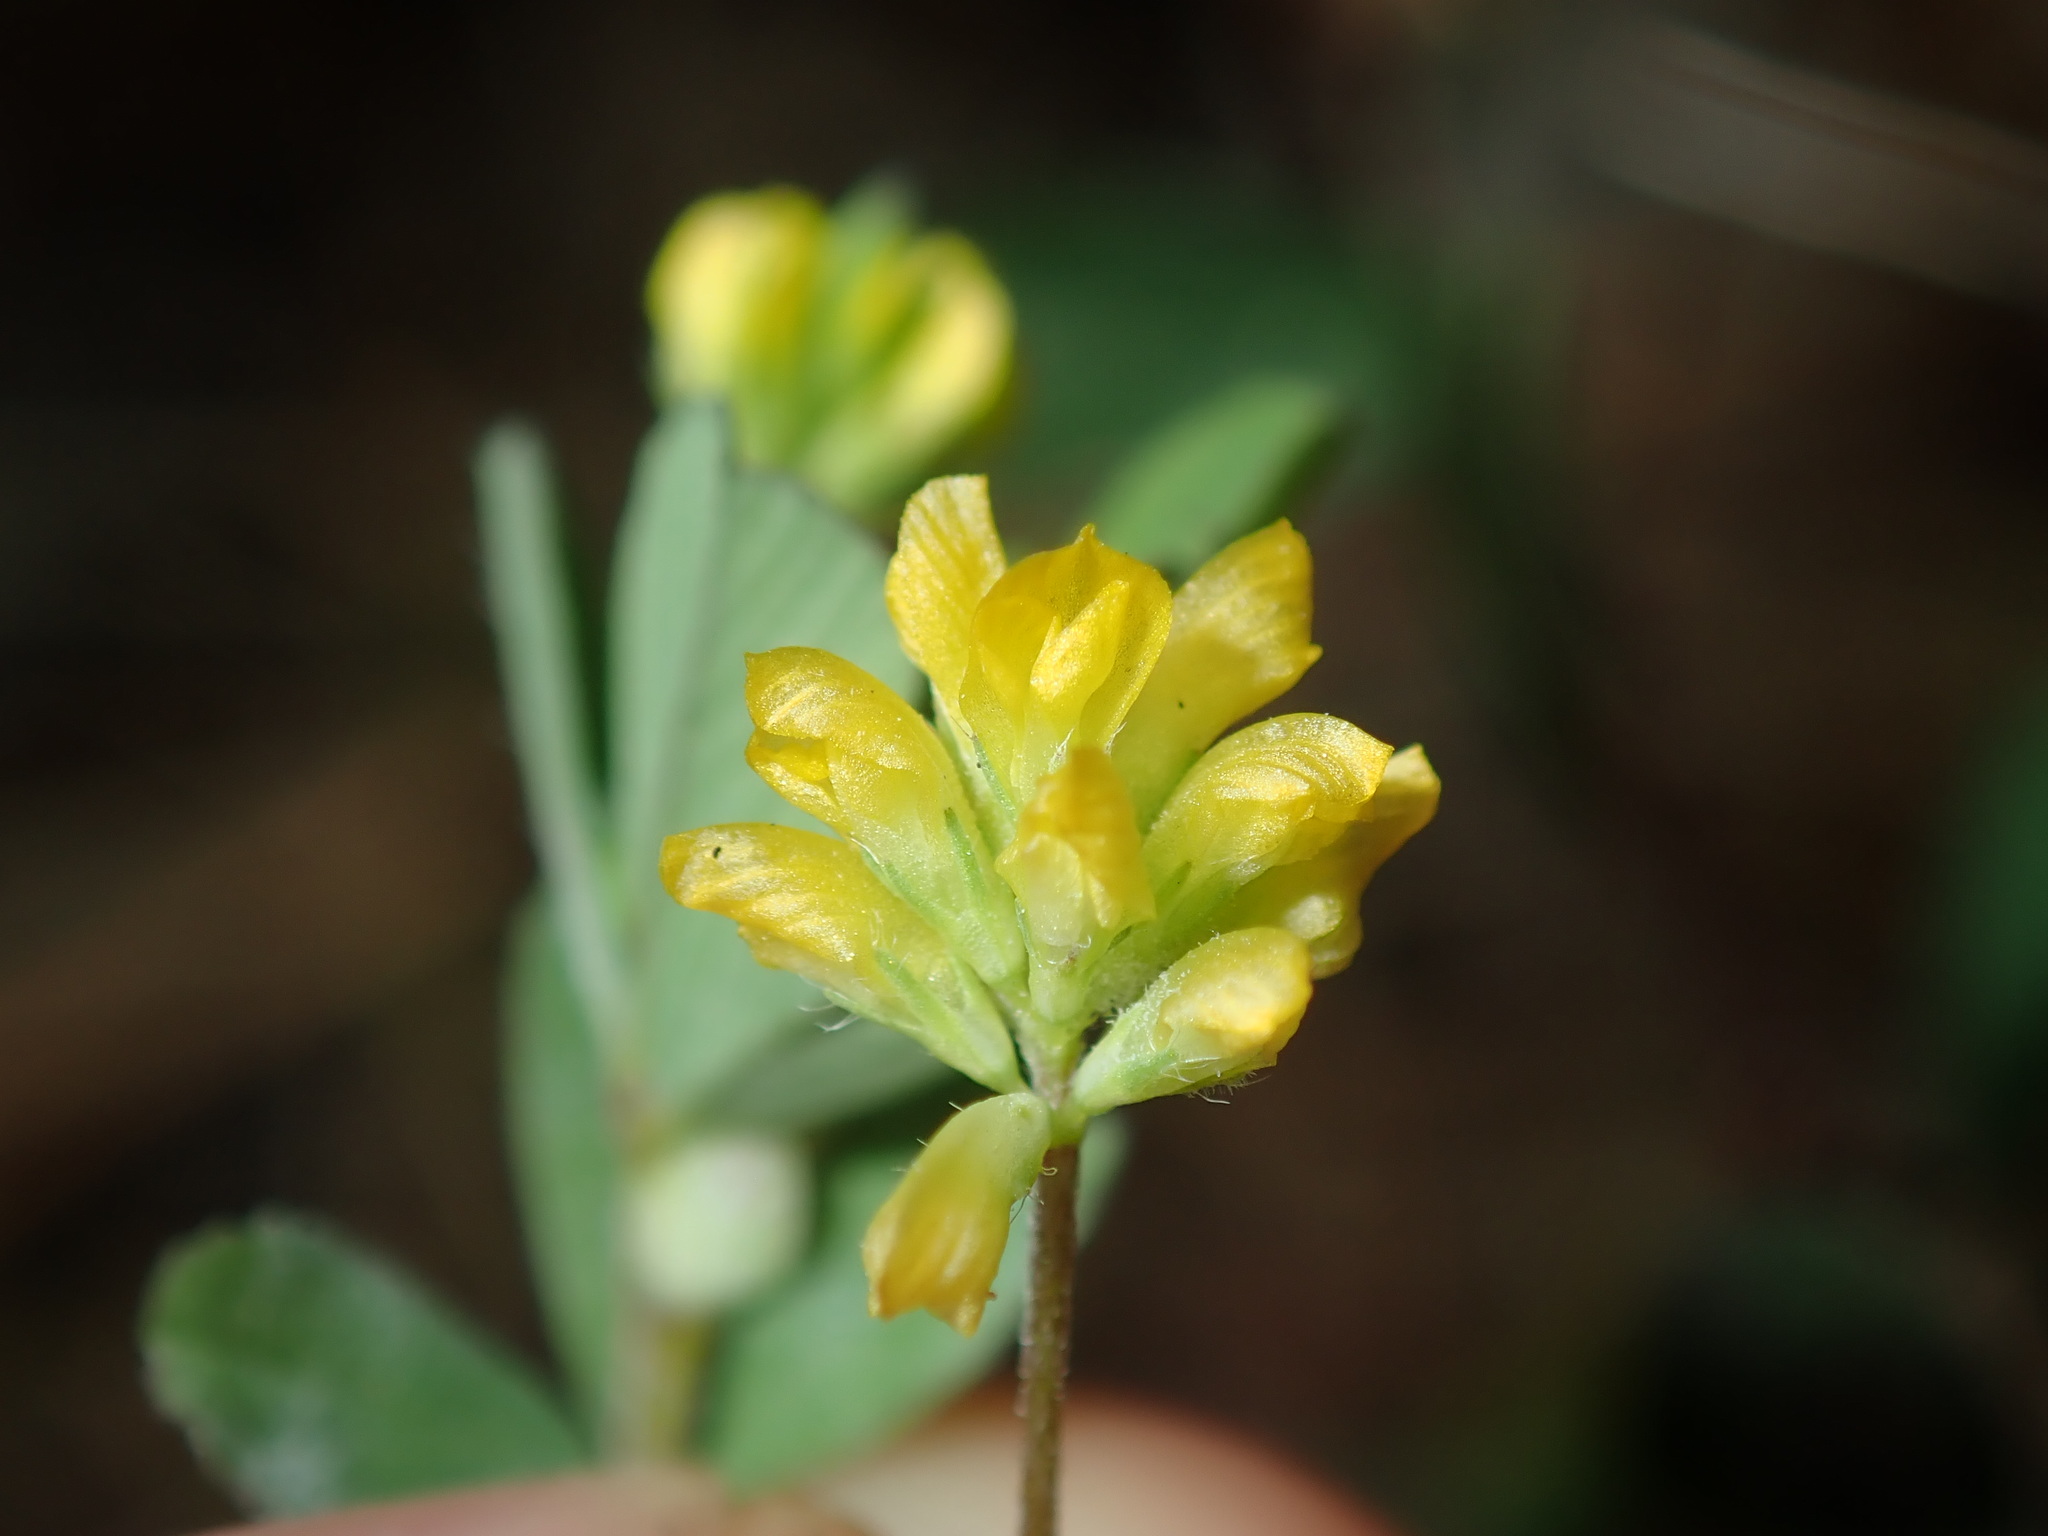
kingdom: Plantae
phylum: Tracheophyta
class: Magnoliopsida
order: Fabales
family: Fabaceae
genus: Trifolium
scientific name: Trifolium dubium
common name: Suckling clover
